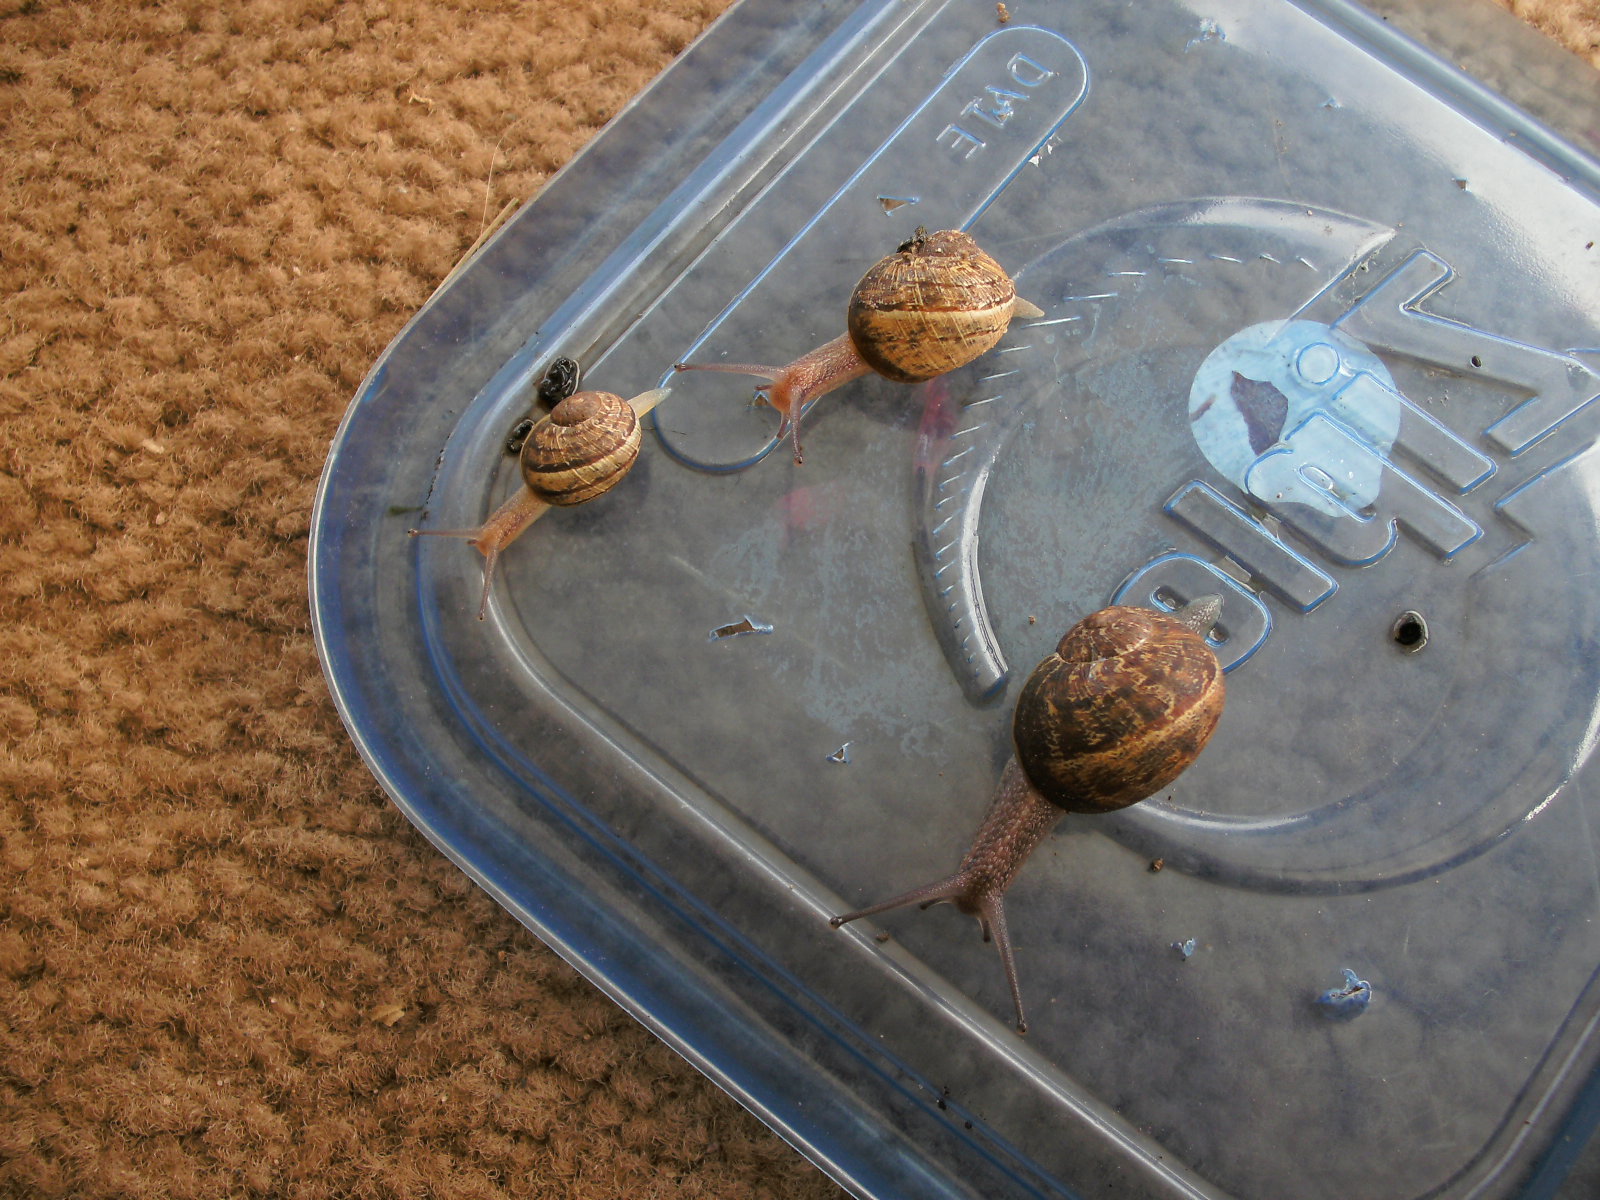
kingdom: Animalia
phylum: Mollusca
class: Gastropoda
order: Stylommatophora
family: Helicidae
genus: Cornu
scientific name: Cornu aspersum
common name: Brown garden snail
